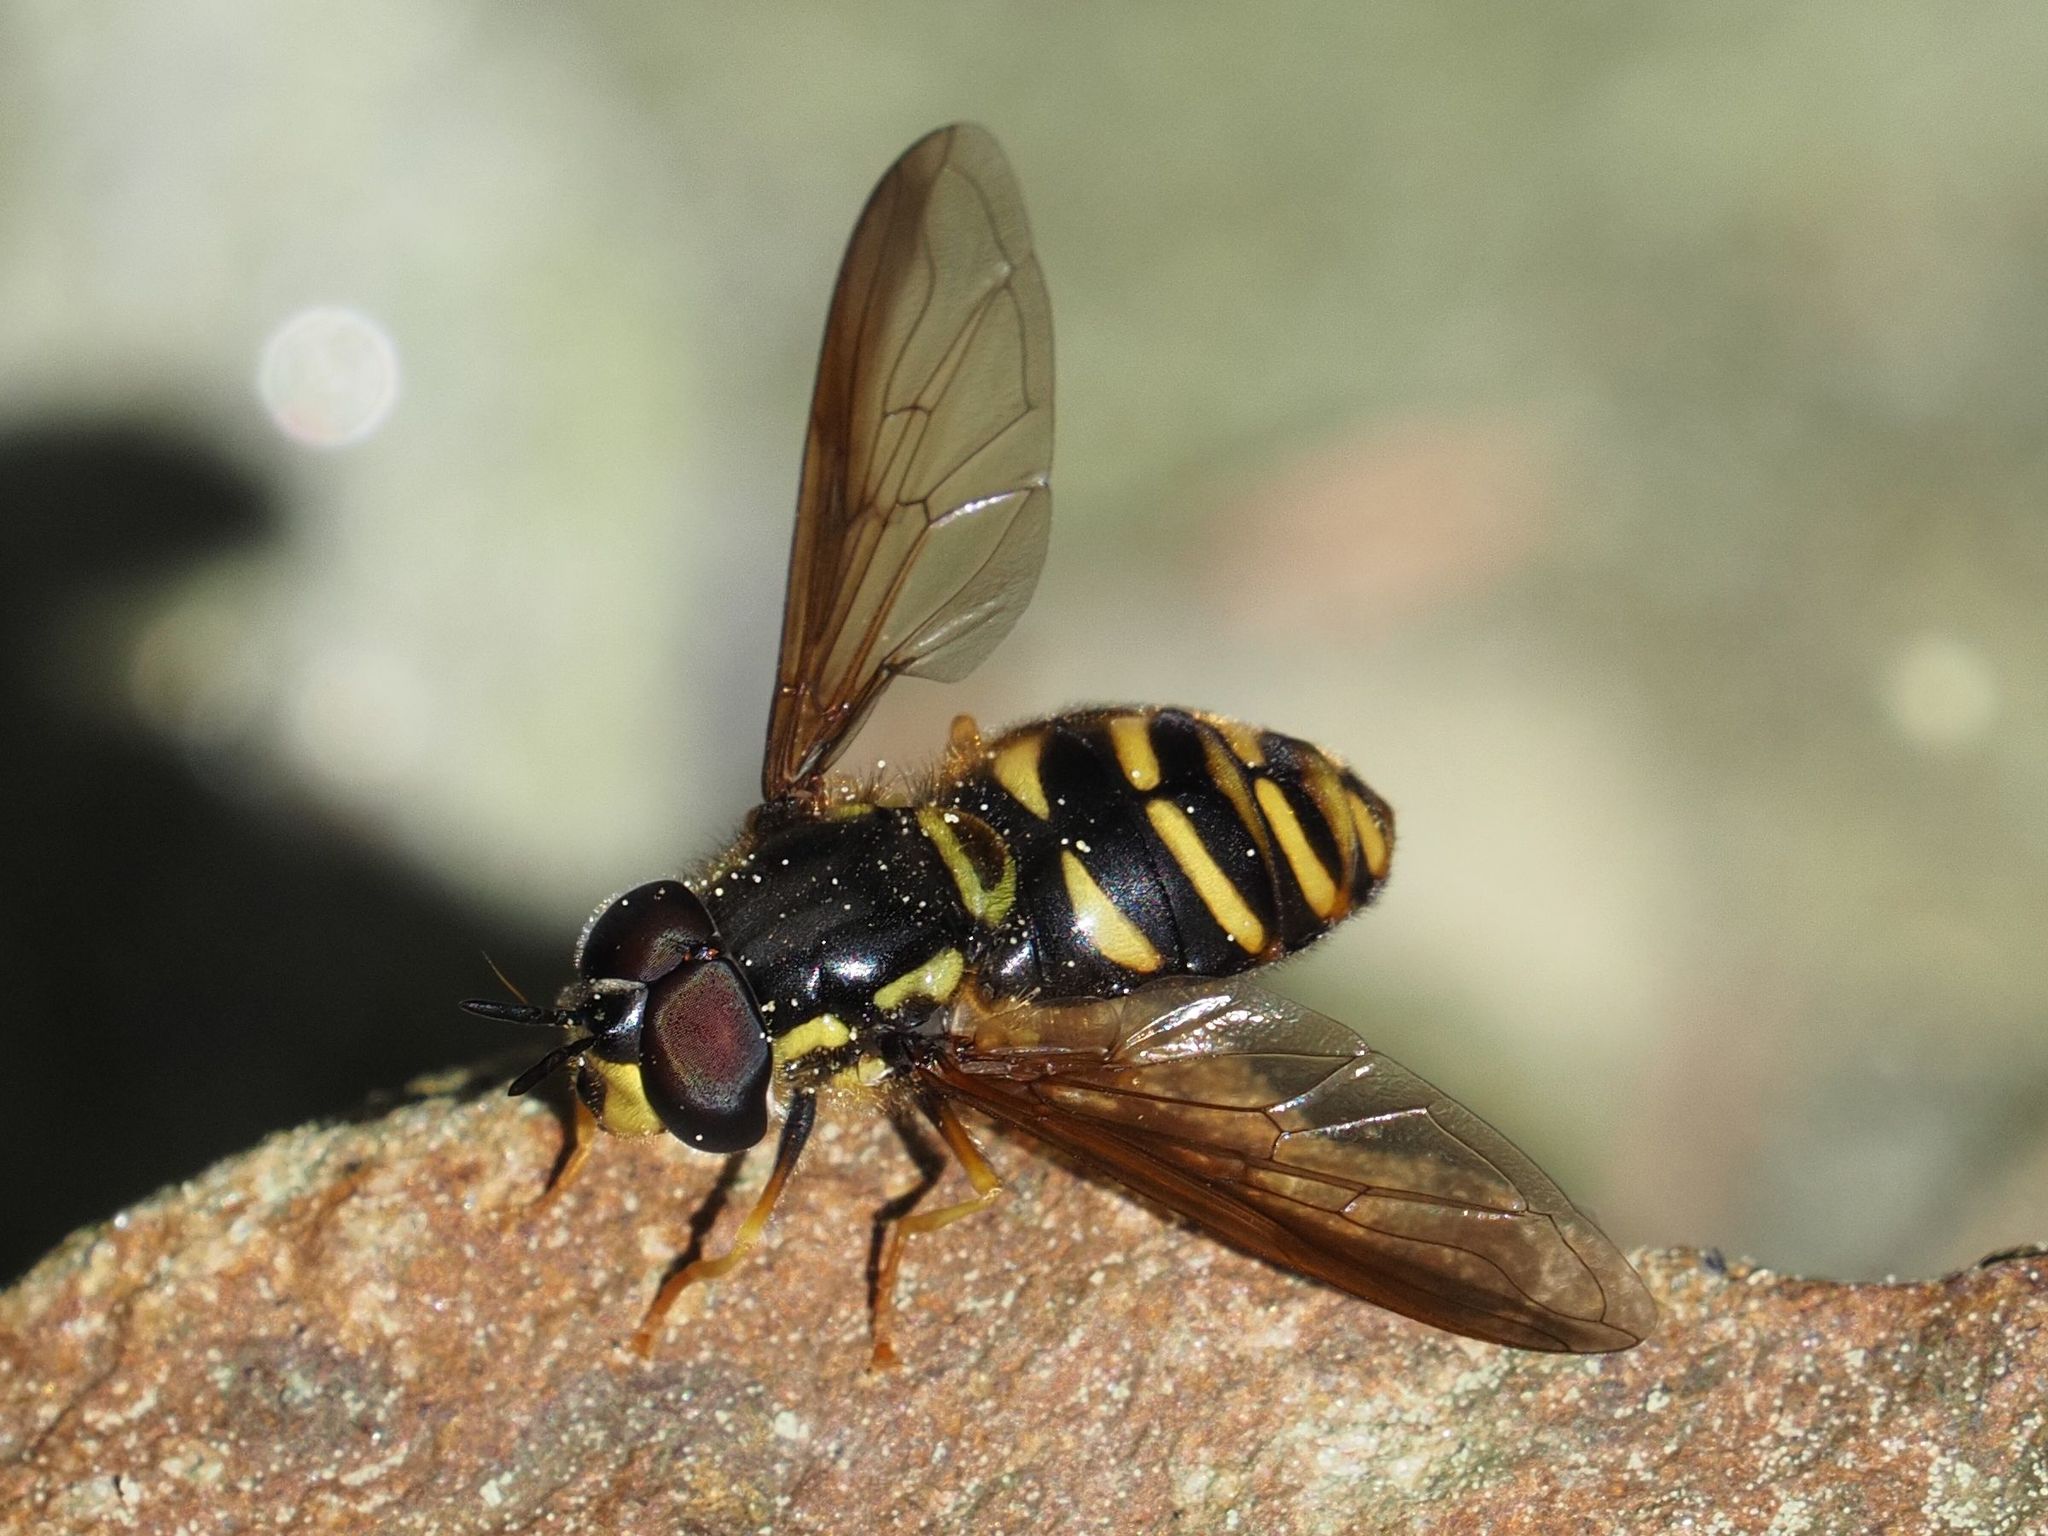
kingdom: Animalia
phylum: Arthropoda
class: Insecta
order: Diptera
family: Syrphidae
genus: Chrysotoxum
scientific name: Chrysotoxum intermedium
